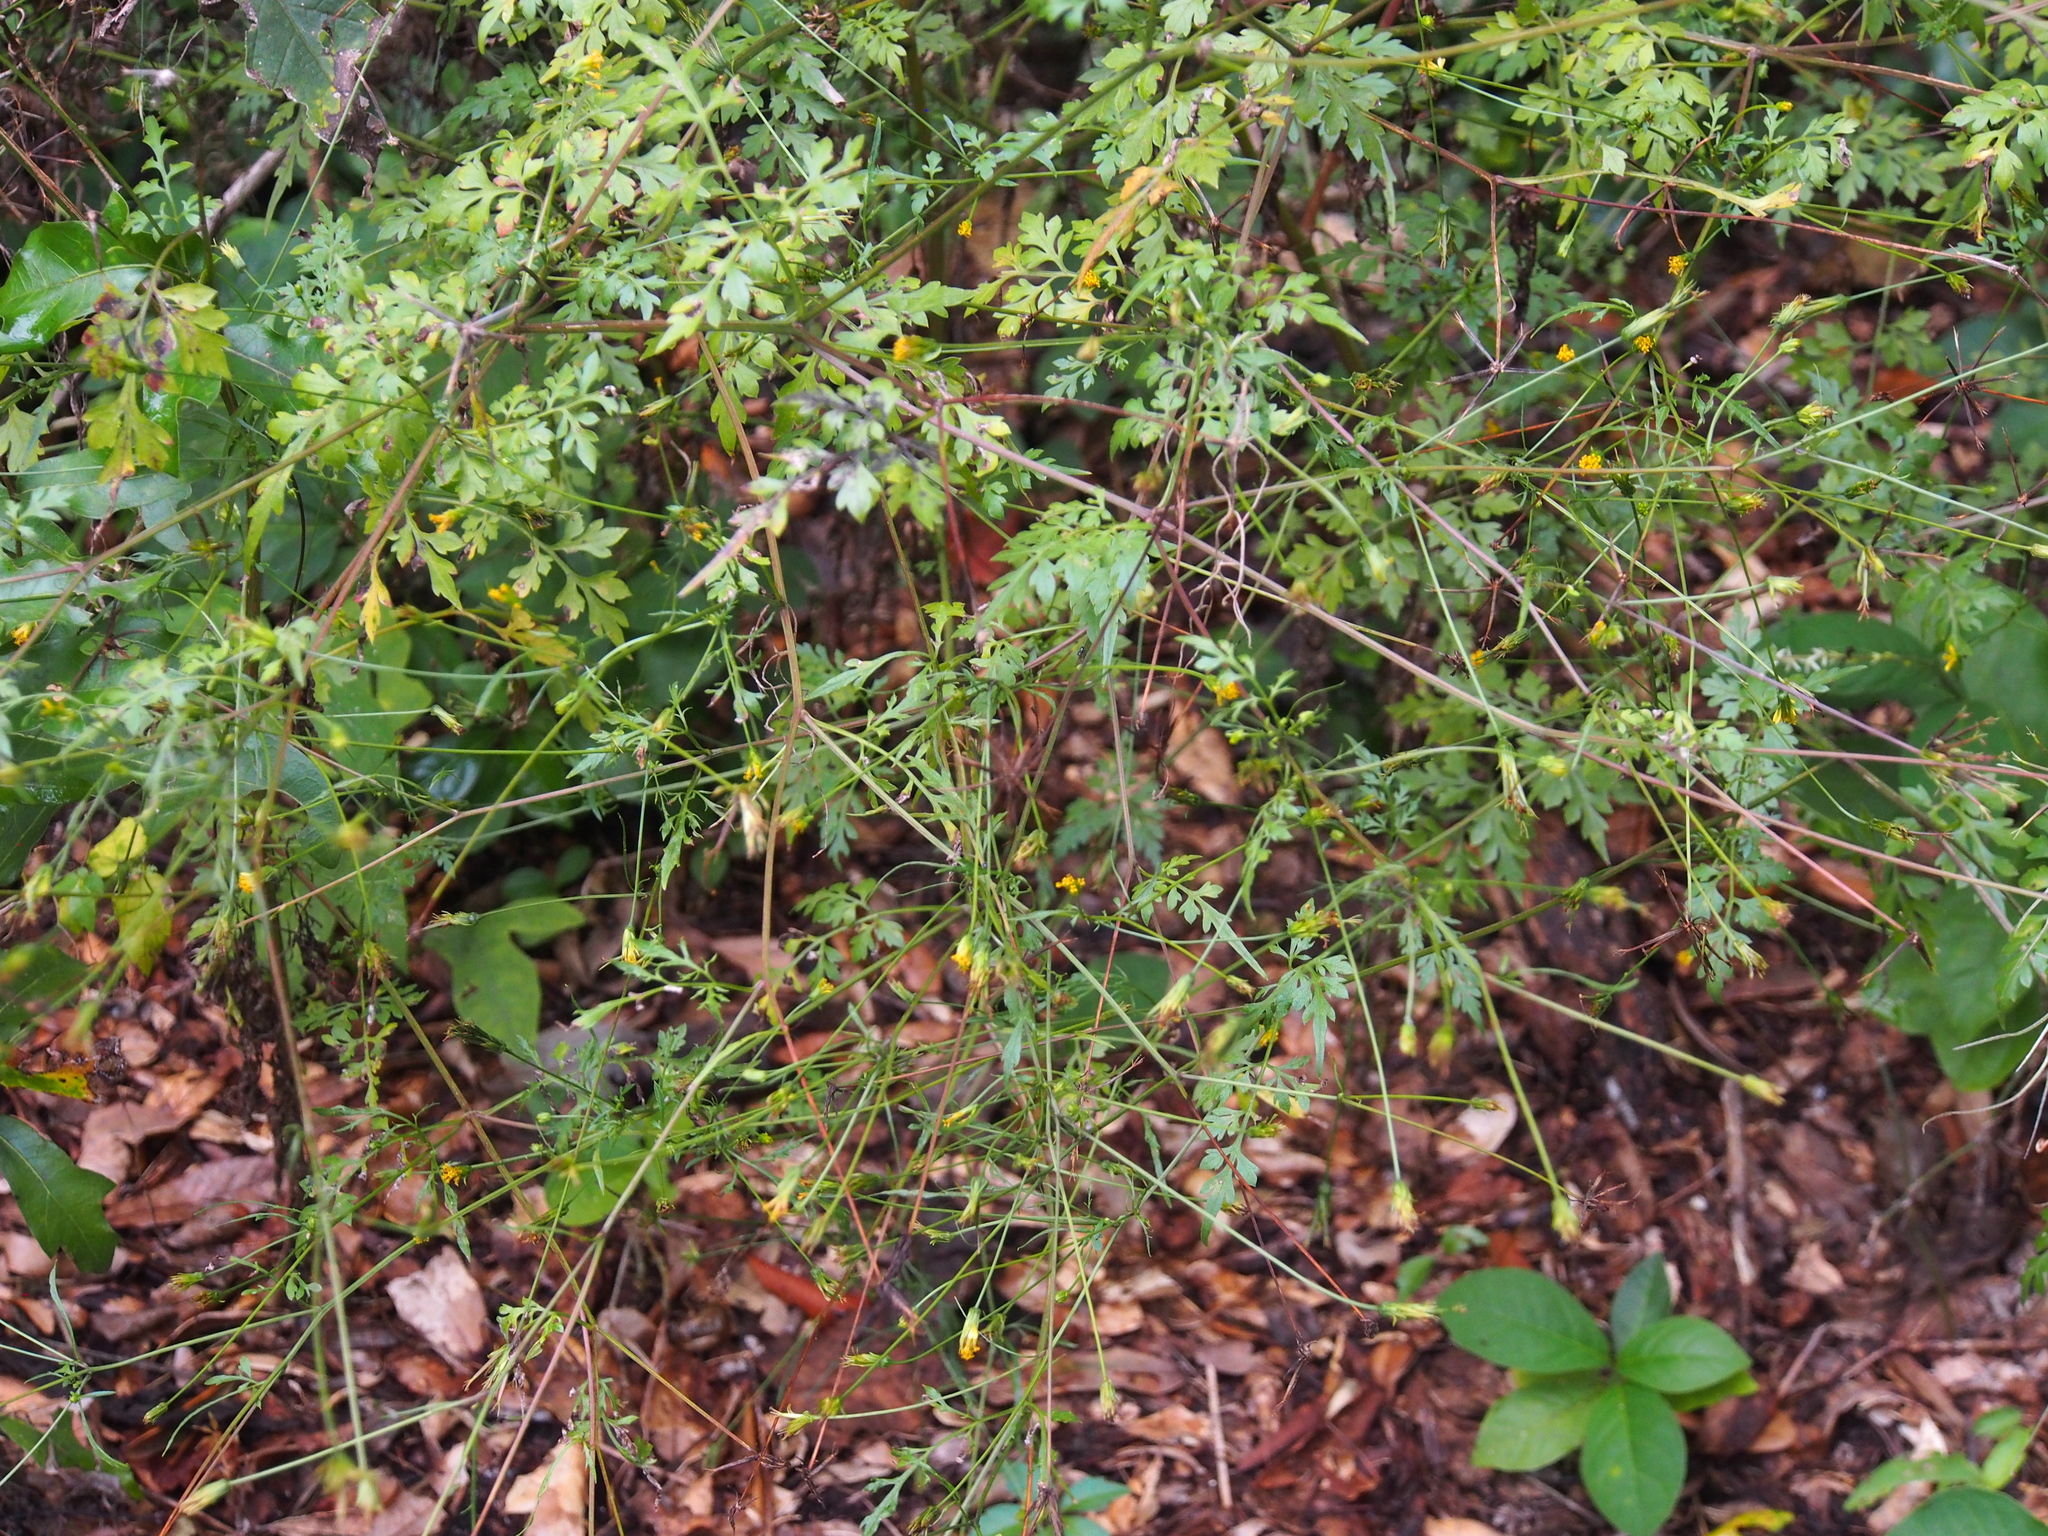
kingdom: Plantae
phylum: Tracheophyta
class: Magnoliopsida
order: Asterales
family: Asteraceae
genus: Bidens
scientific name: Bidens bipinnata
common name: Spanish-needles
